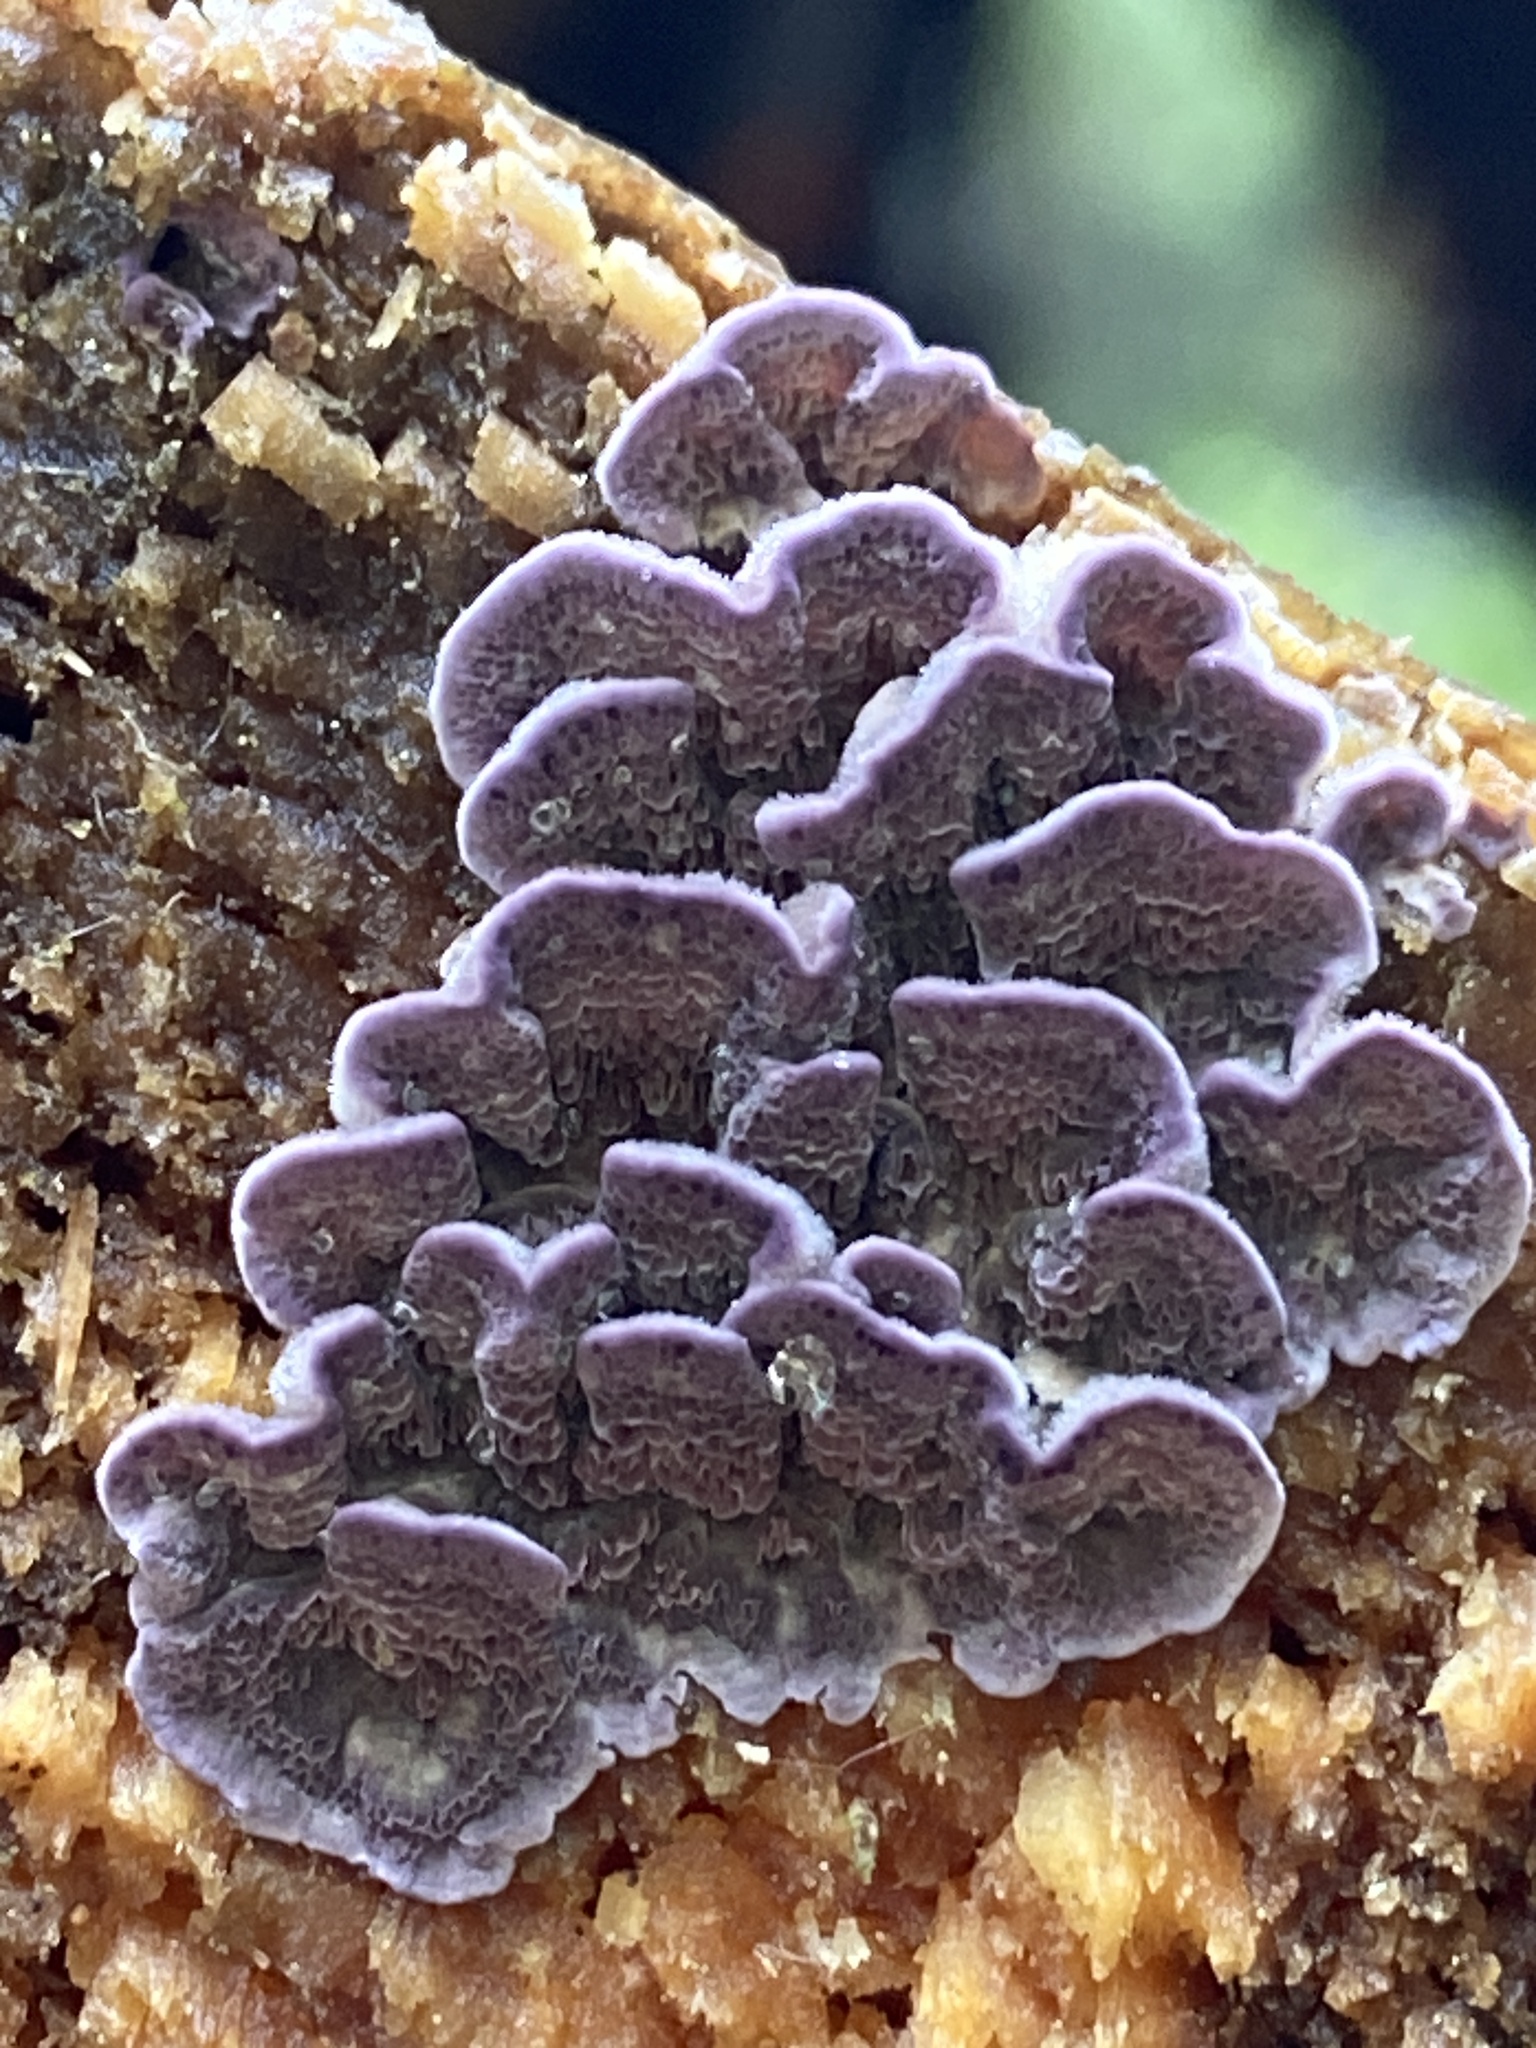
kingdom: Fungi
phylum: Basidiomycota
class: Agaricomycetes
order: Hymenochaetales
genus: Trichaptum
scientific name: Trichaptum abietinum
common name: Purplepore bracket
